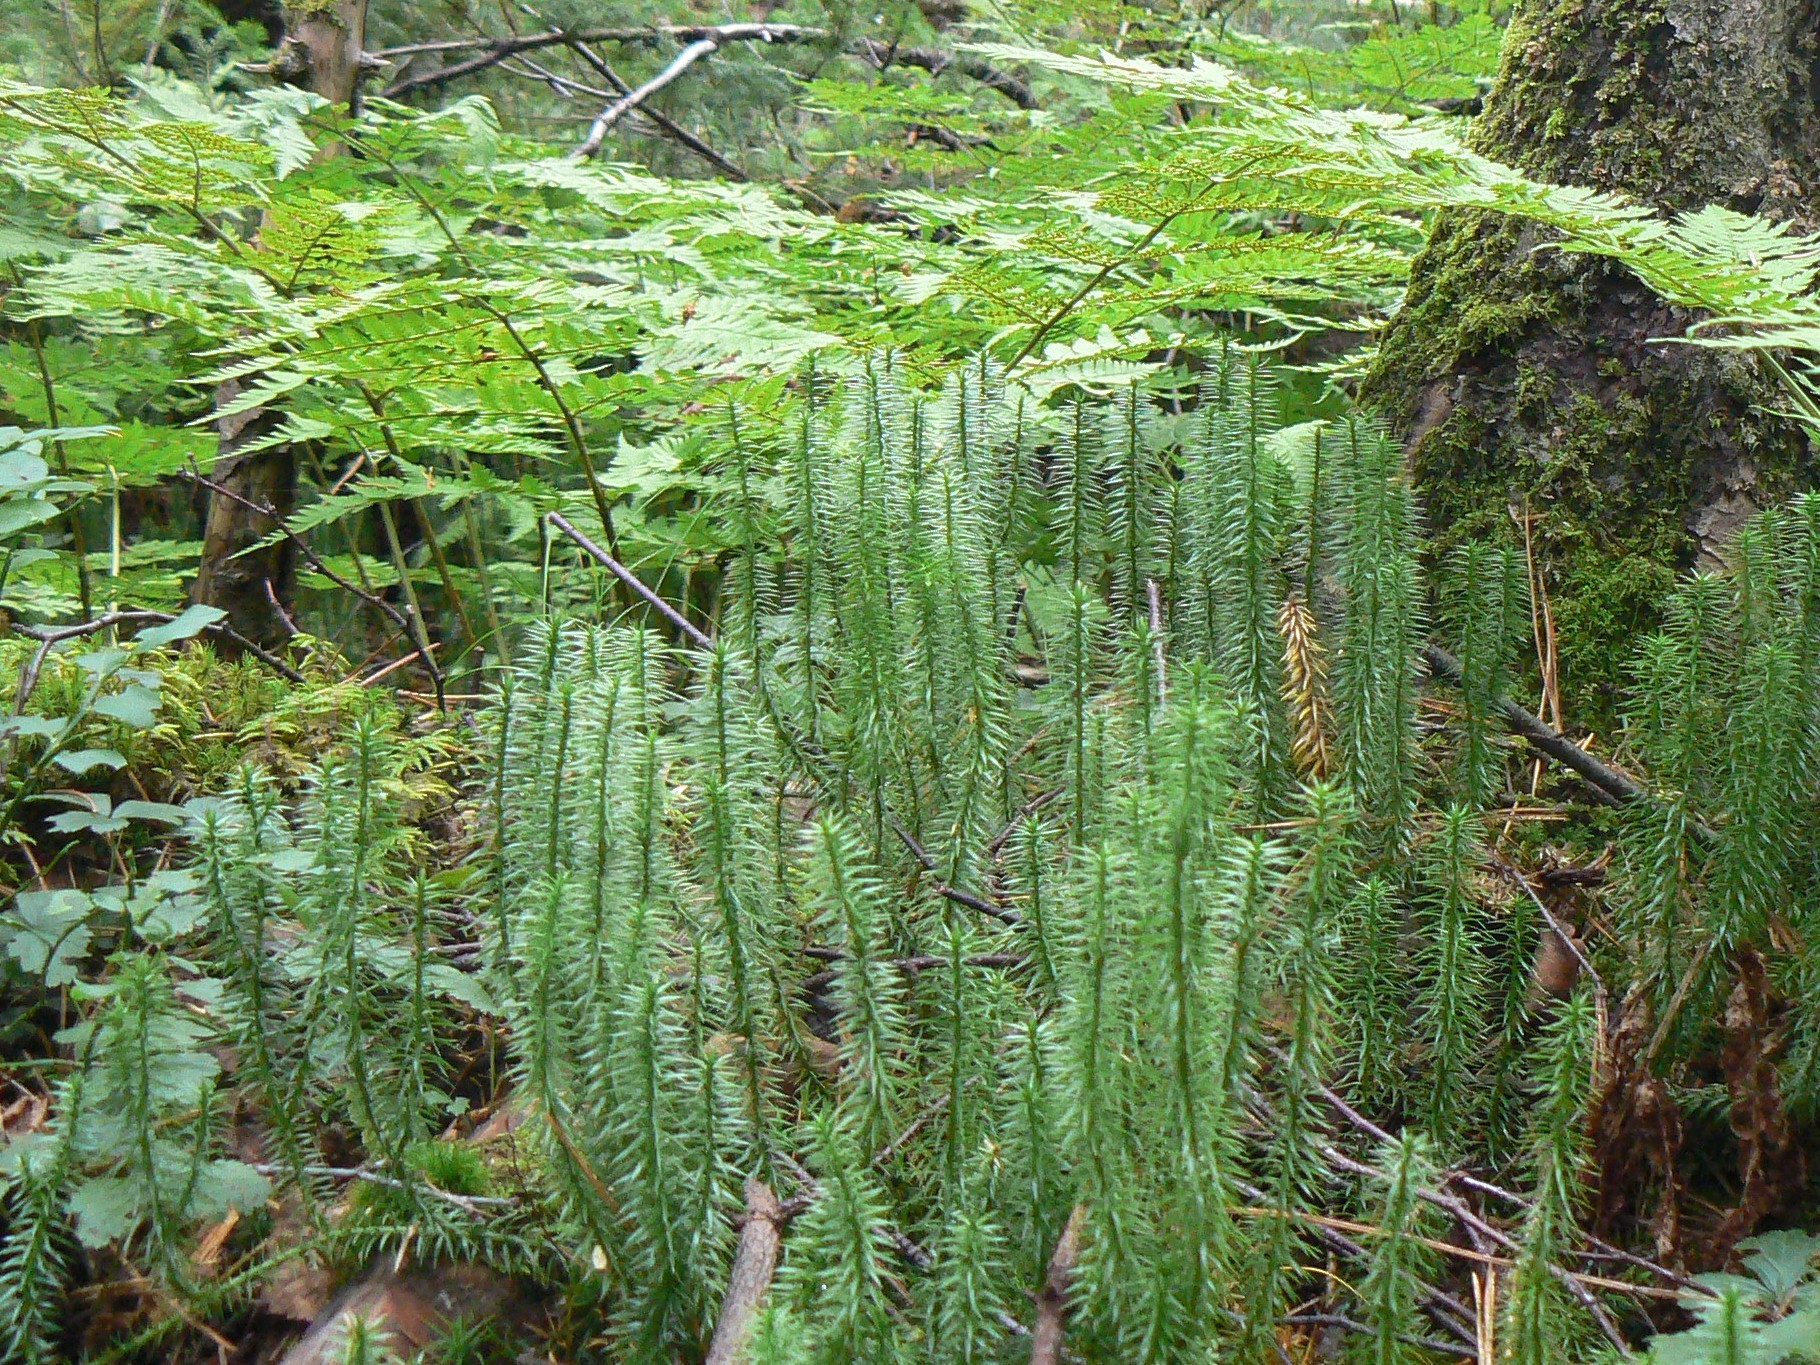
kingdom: Plantae
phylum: Tracheophyta
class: Lycopodiopsida
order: Lycopodiales
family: Lycopodiaceae
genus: Spinulum
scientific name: Spinulum annotinum
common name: Interrupted club-moss
